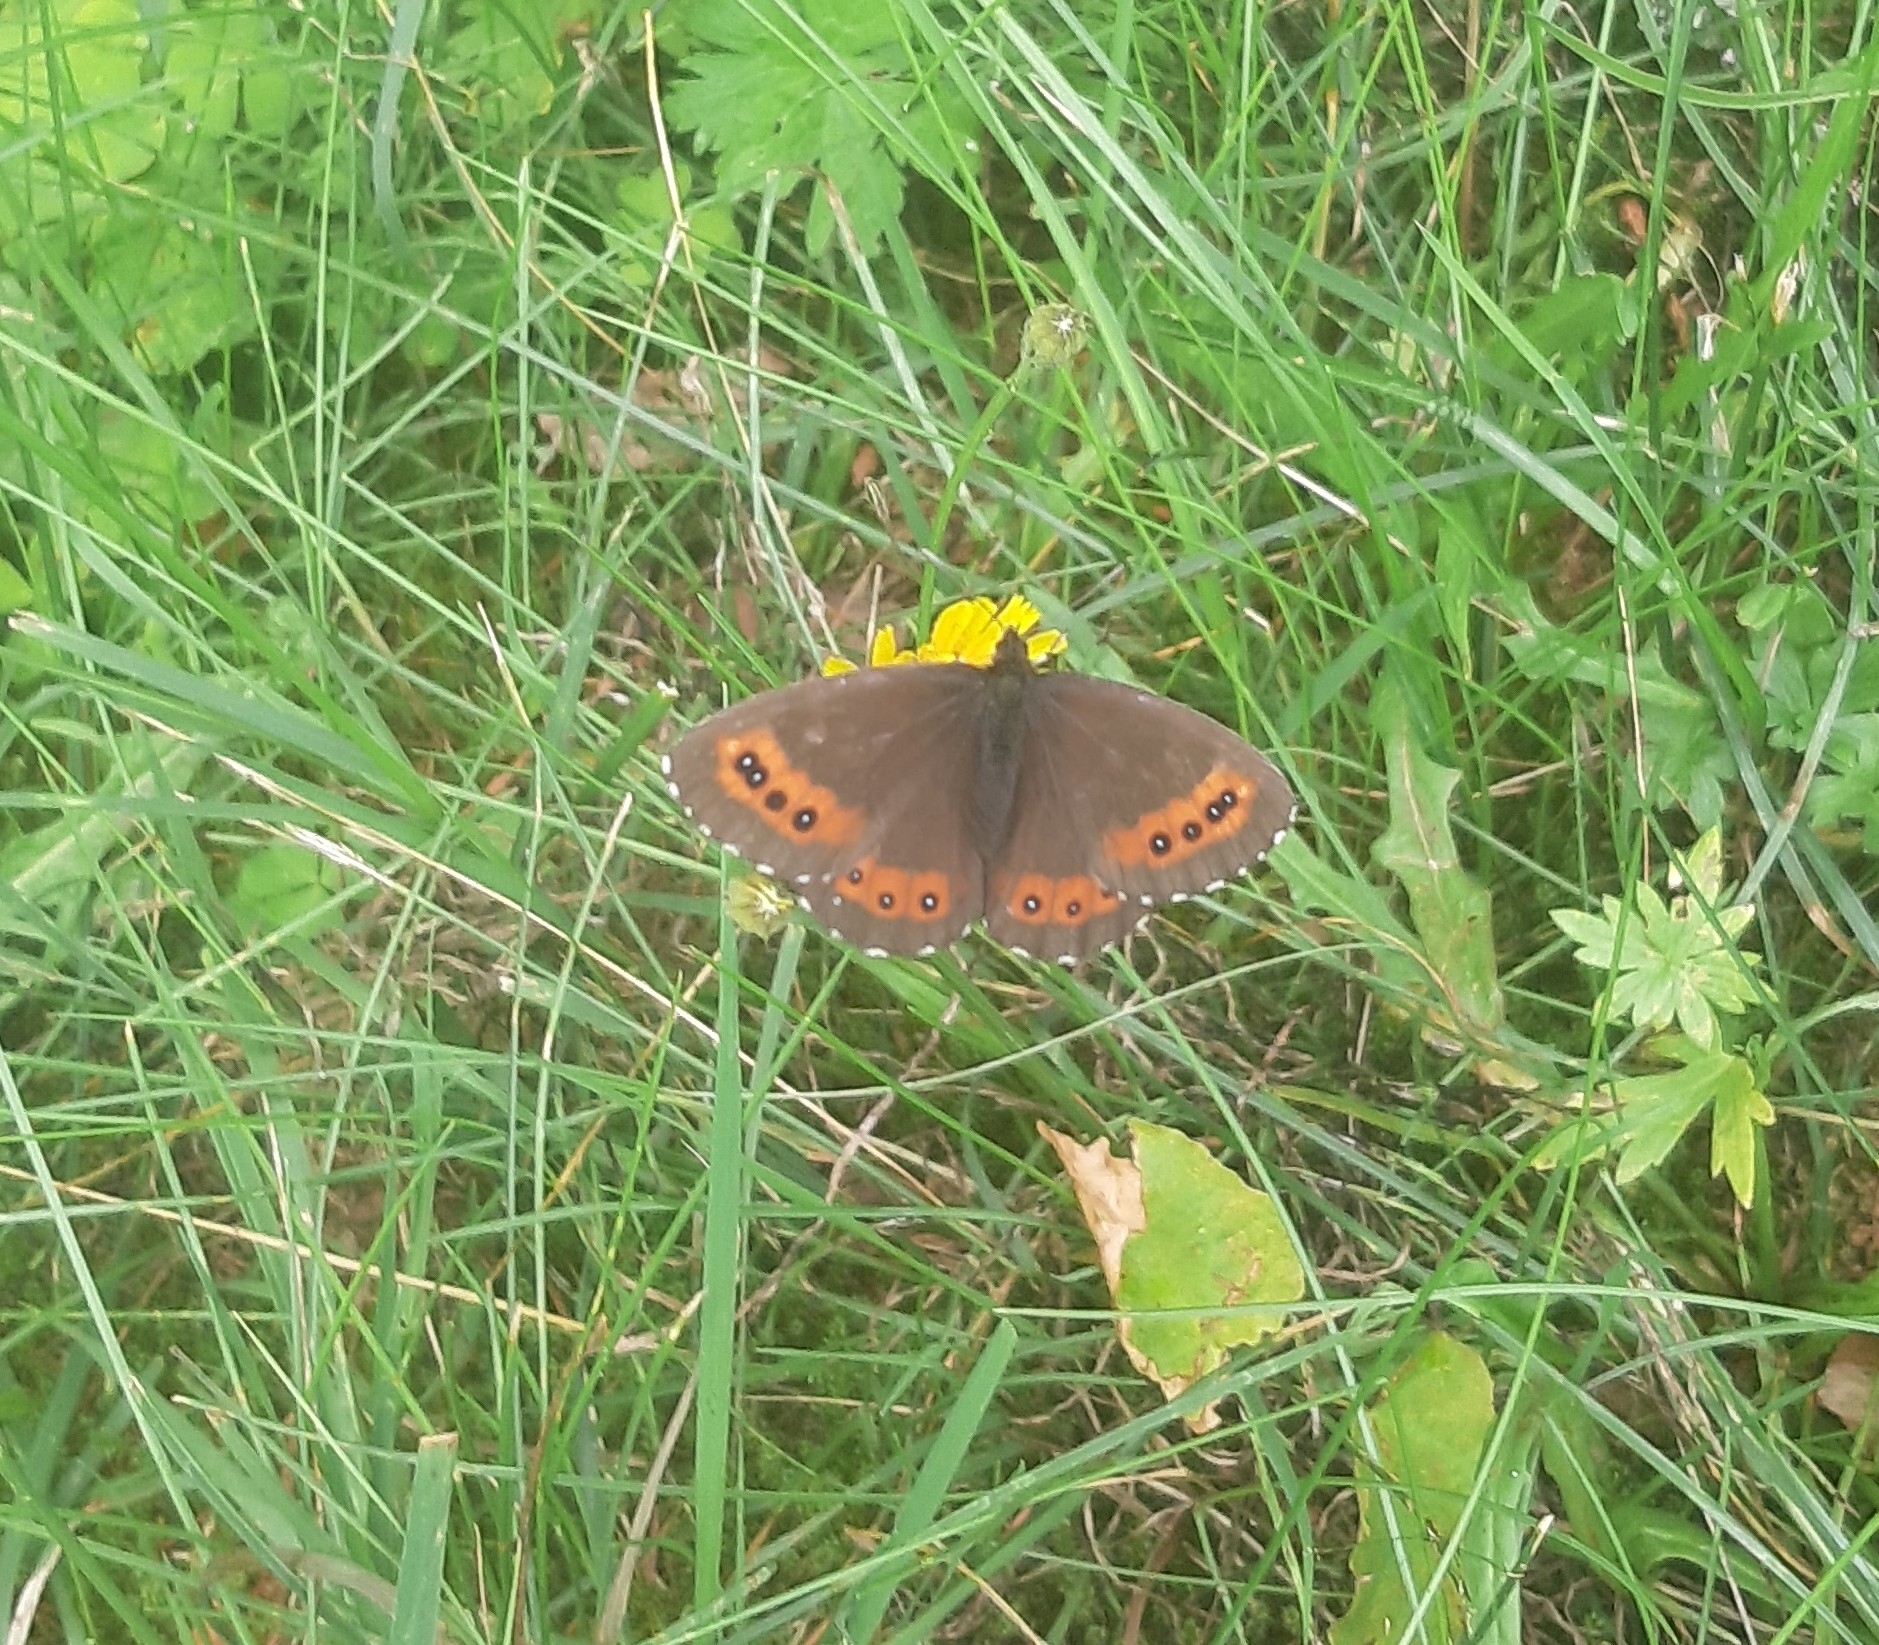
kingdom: Animalia
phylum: Arthropoda
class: Insecta
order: Lepidoptera
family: Nymphalidae
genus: Erebia
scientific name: Erebia ligea
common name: Arran brown
